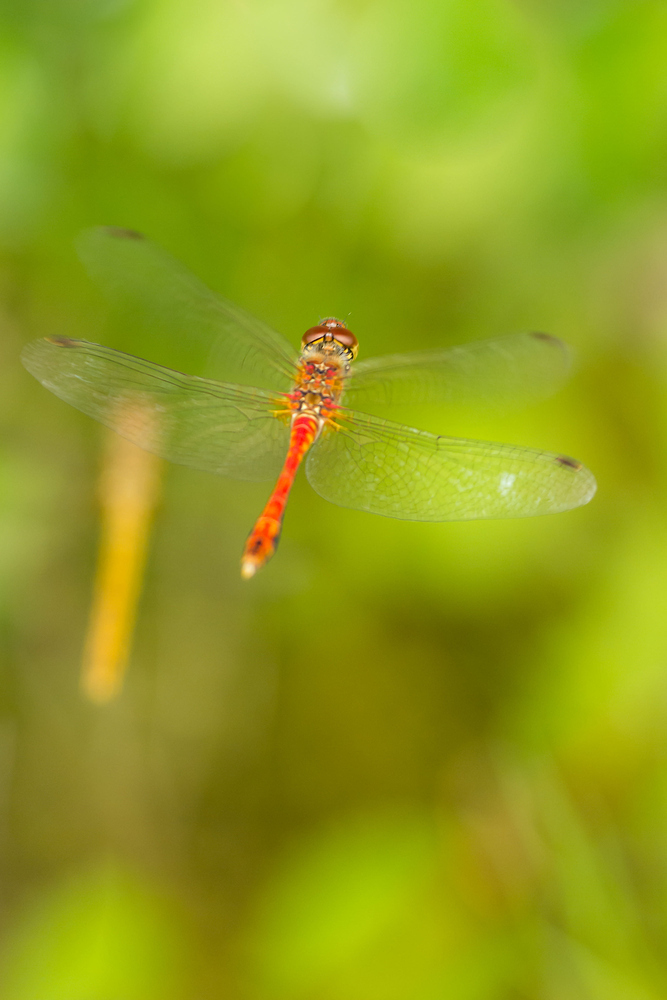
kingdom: Animalia
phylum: Arthropoda
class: Insecta
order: Odonata
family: Libellulidae
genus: Sympetrum
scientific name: Sympetrum sanguineum
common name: Ruddy darter
